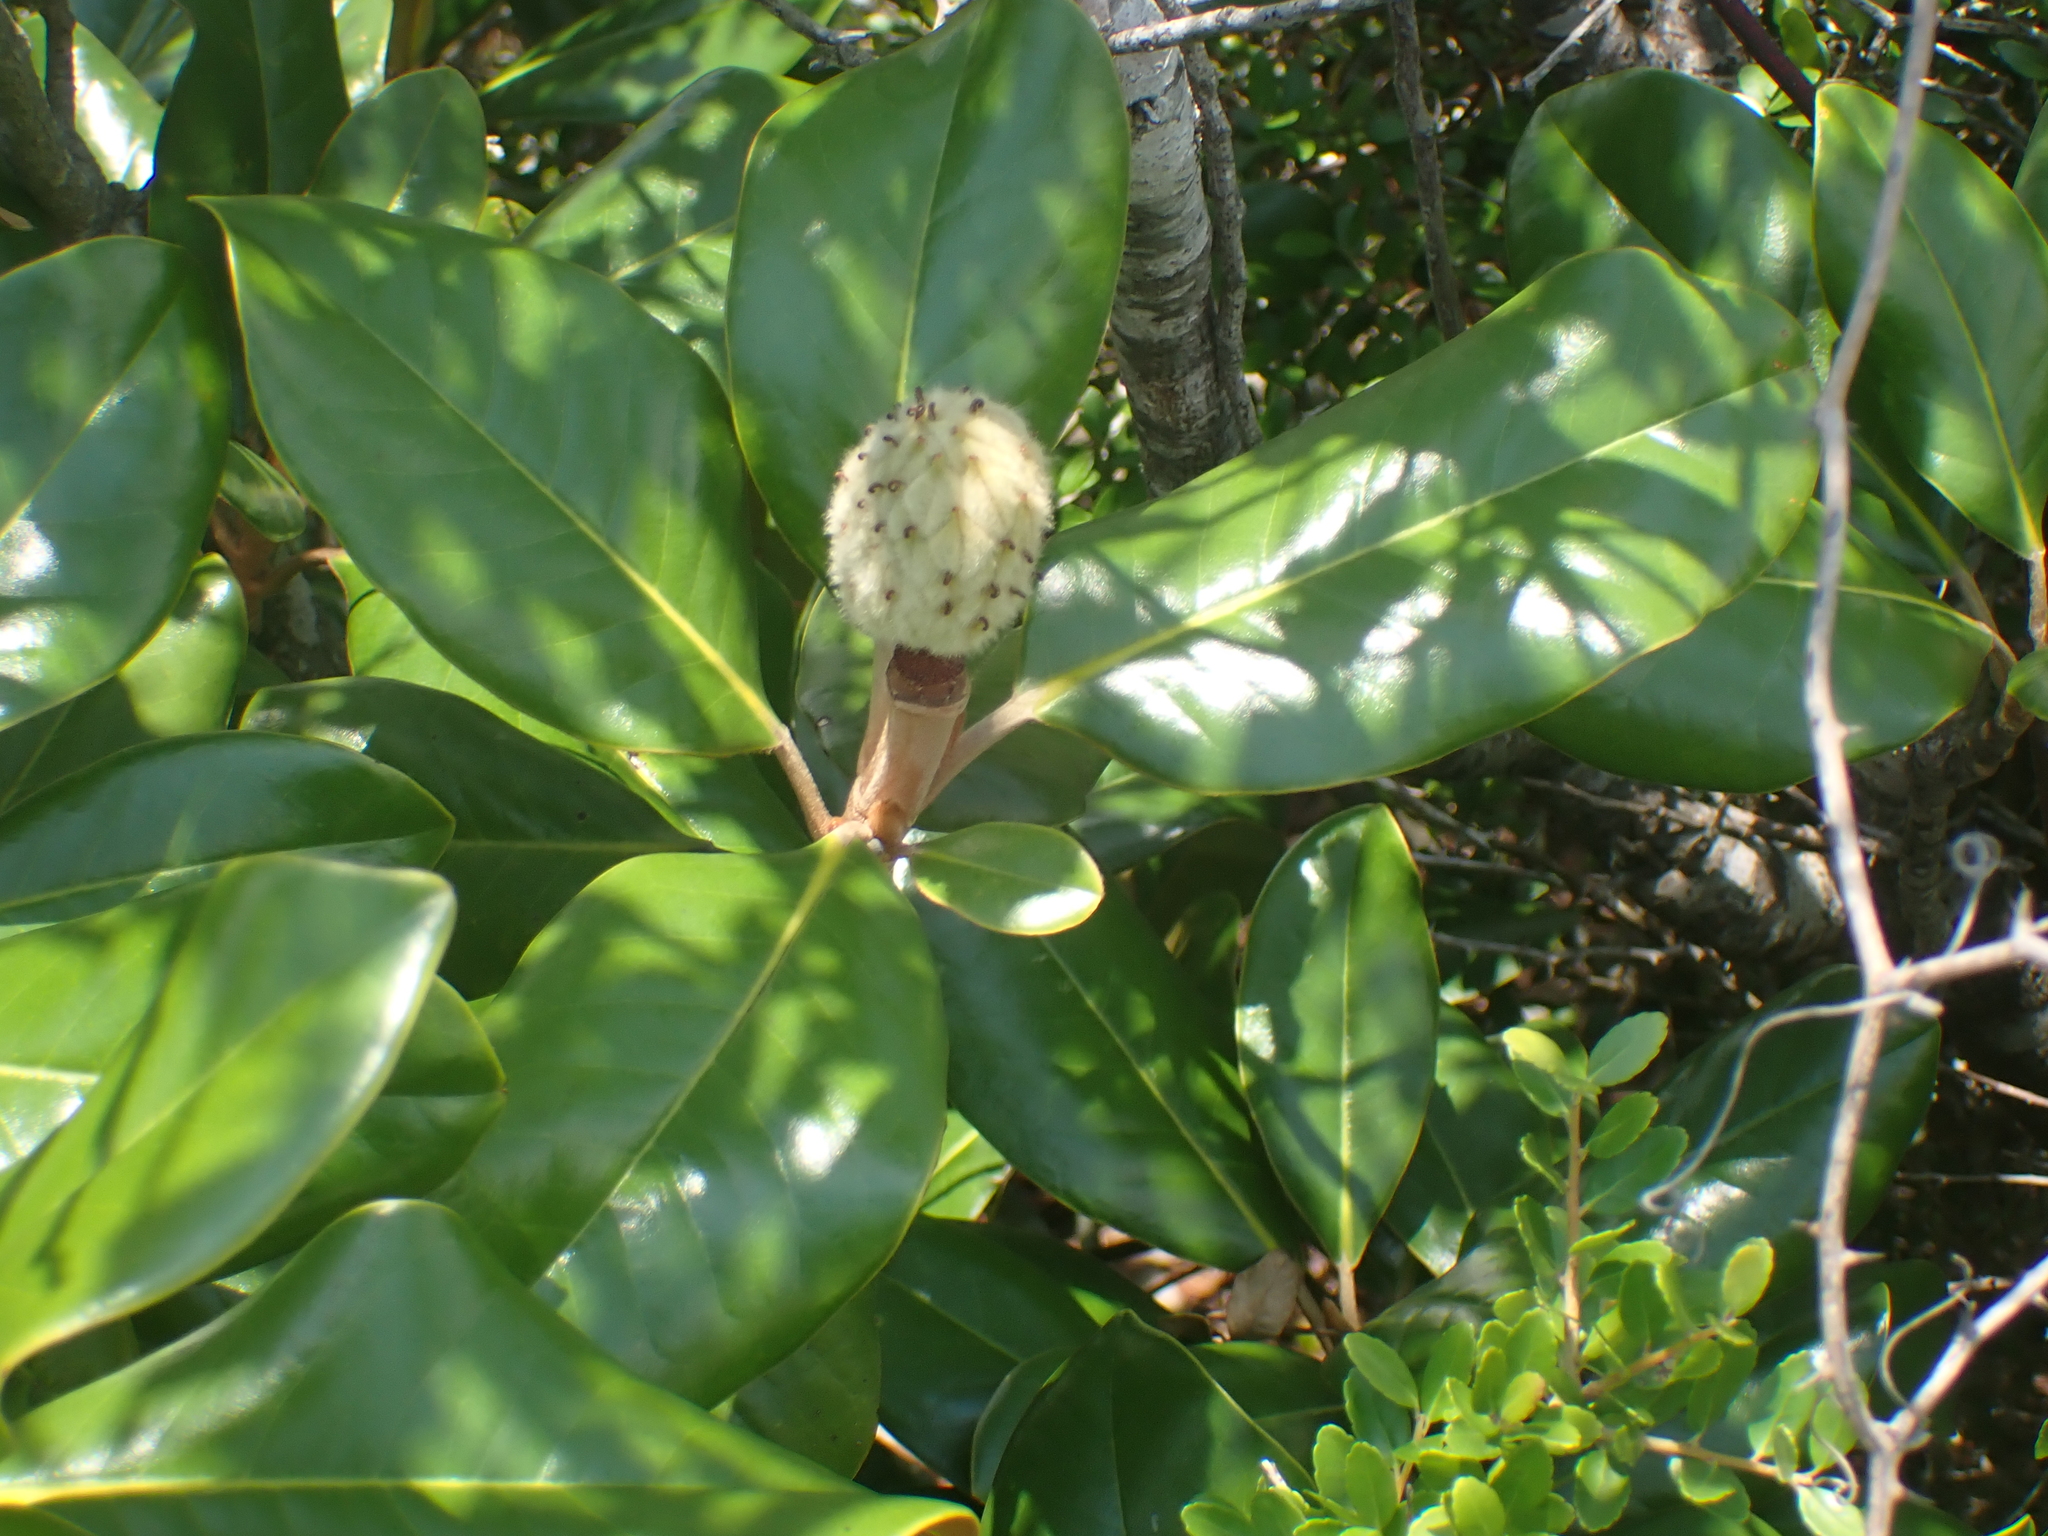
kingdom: Plantae
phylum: Tracheophyta
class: Magnoliopsida
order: Magnoliales
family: Magnoliaceae
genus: Magnolia
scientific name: Magnolia grandiflora
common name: Southern magnolia
